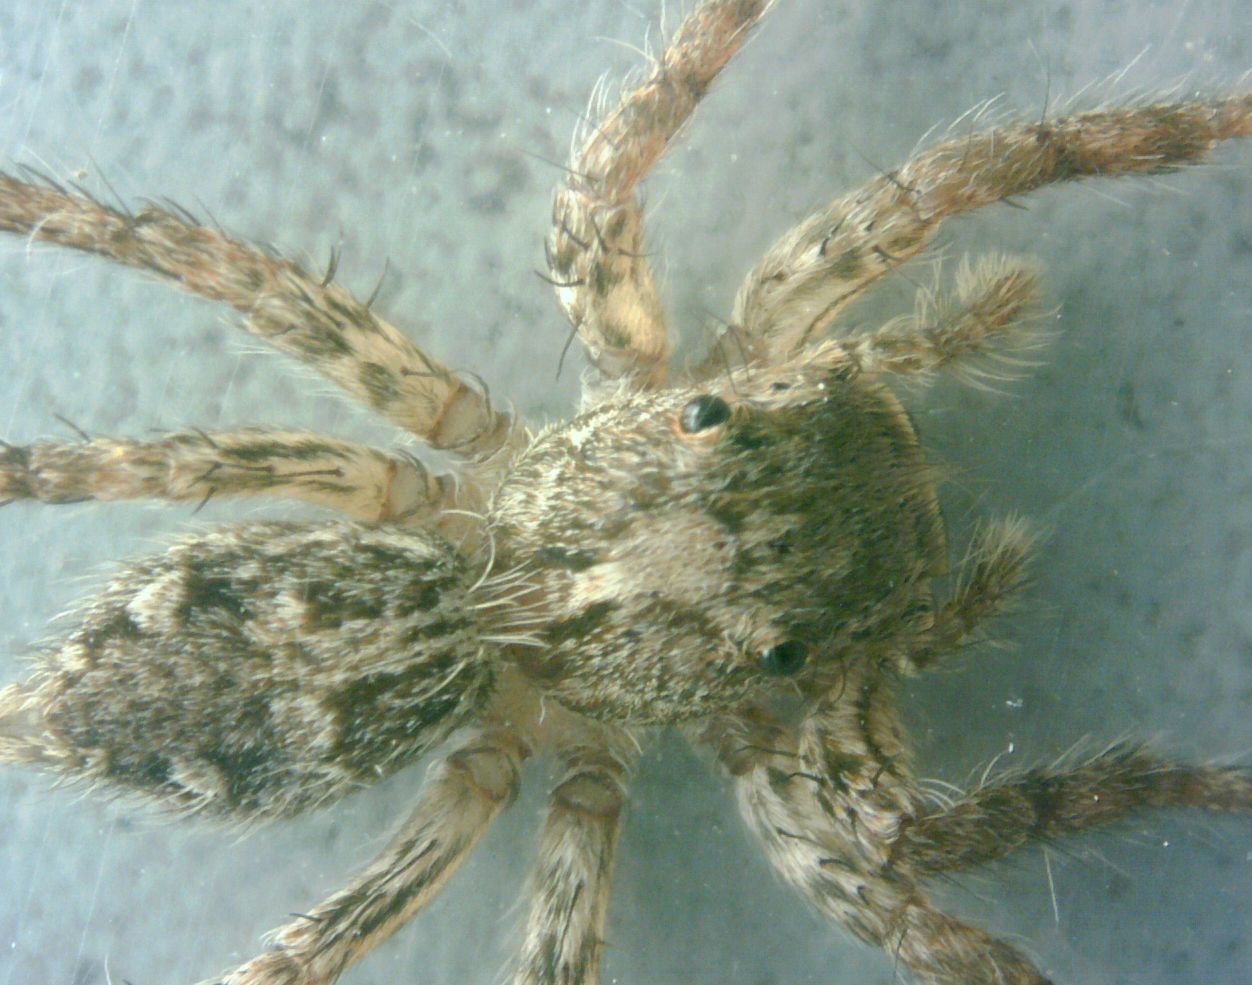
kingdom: Animalia
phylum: Arthropoda
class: Arachnida
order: Araneae
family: Salticidae
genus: Plexippus
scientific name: Plexippus petersi
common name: Jumping spider
